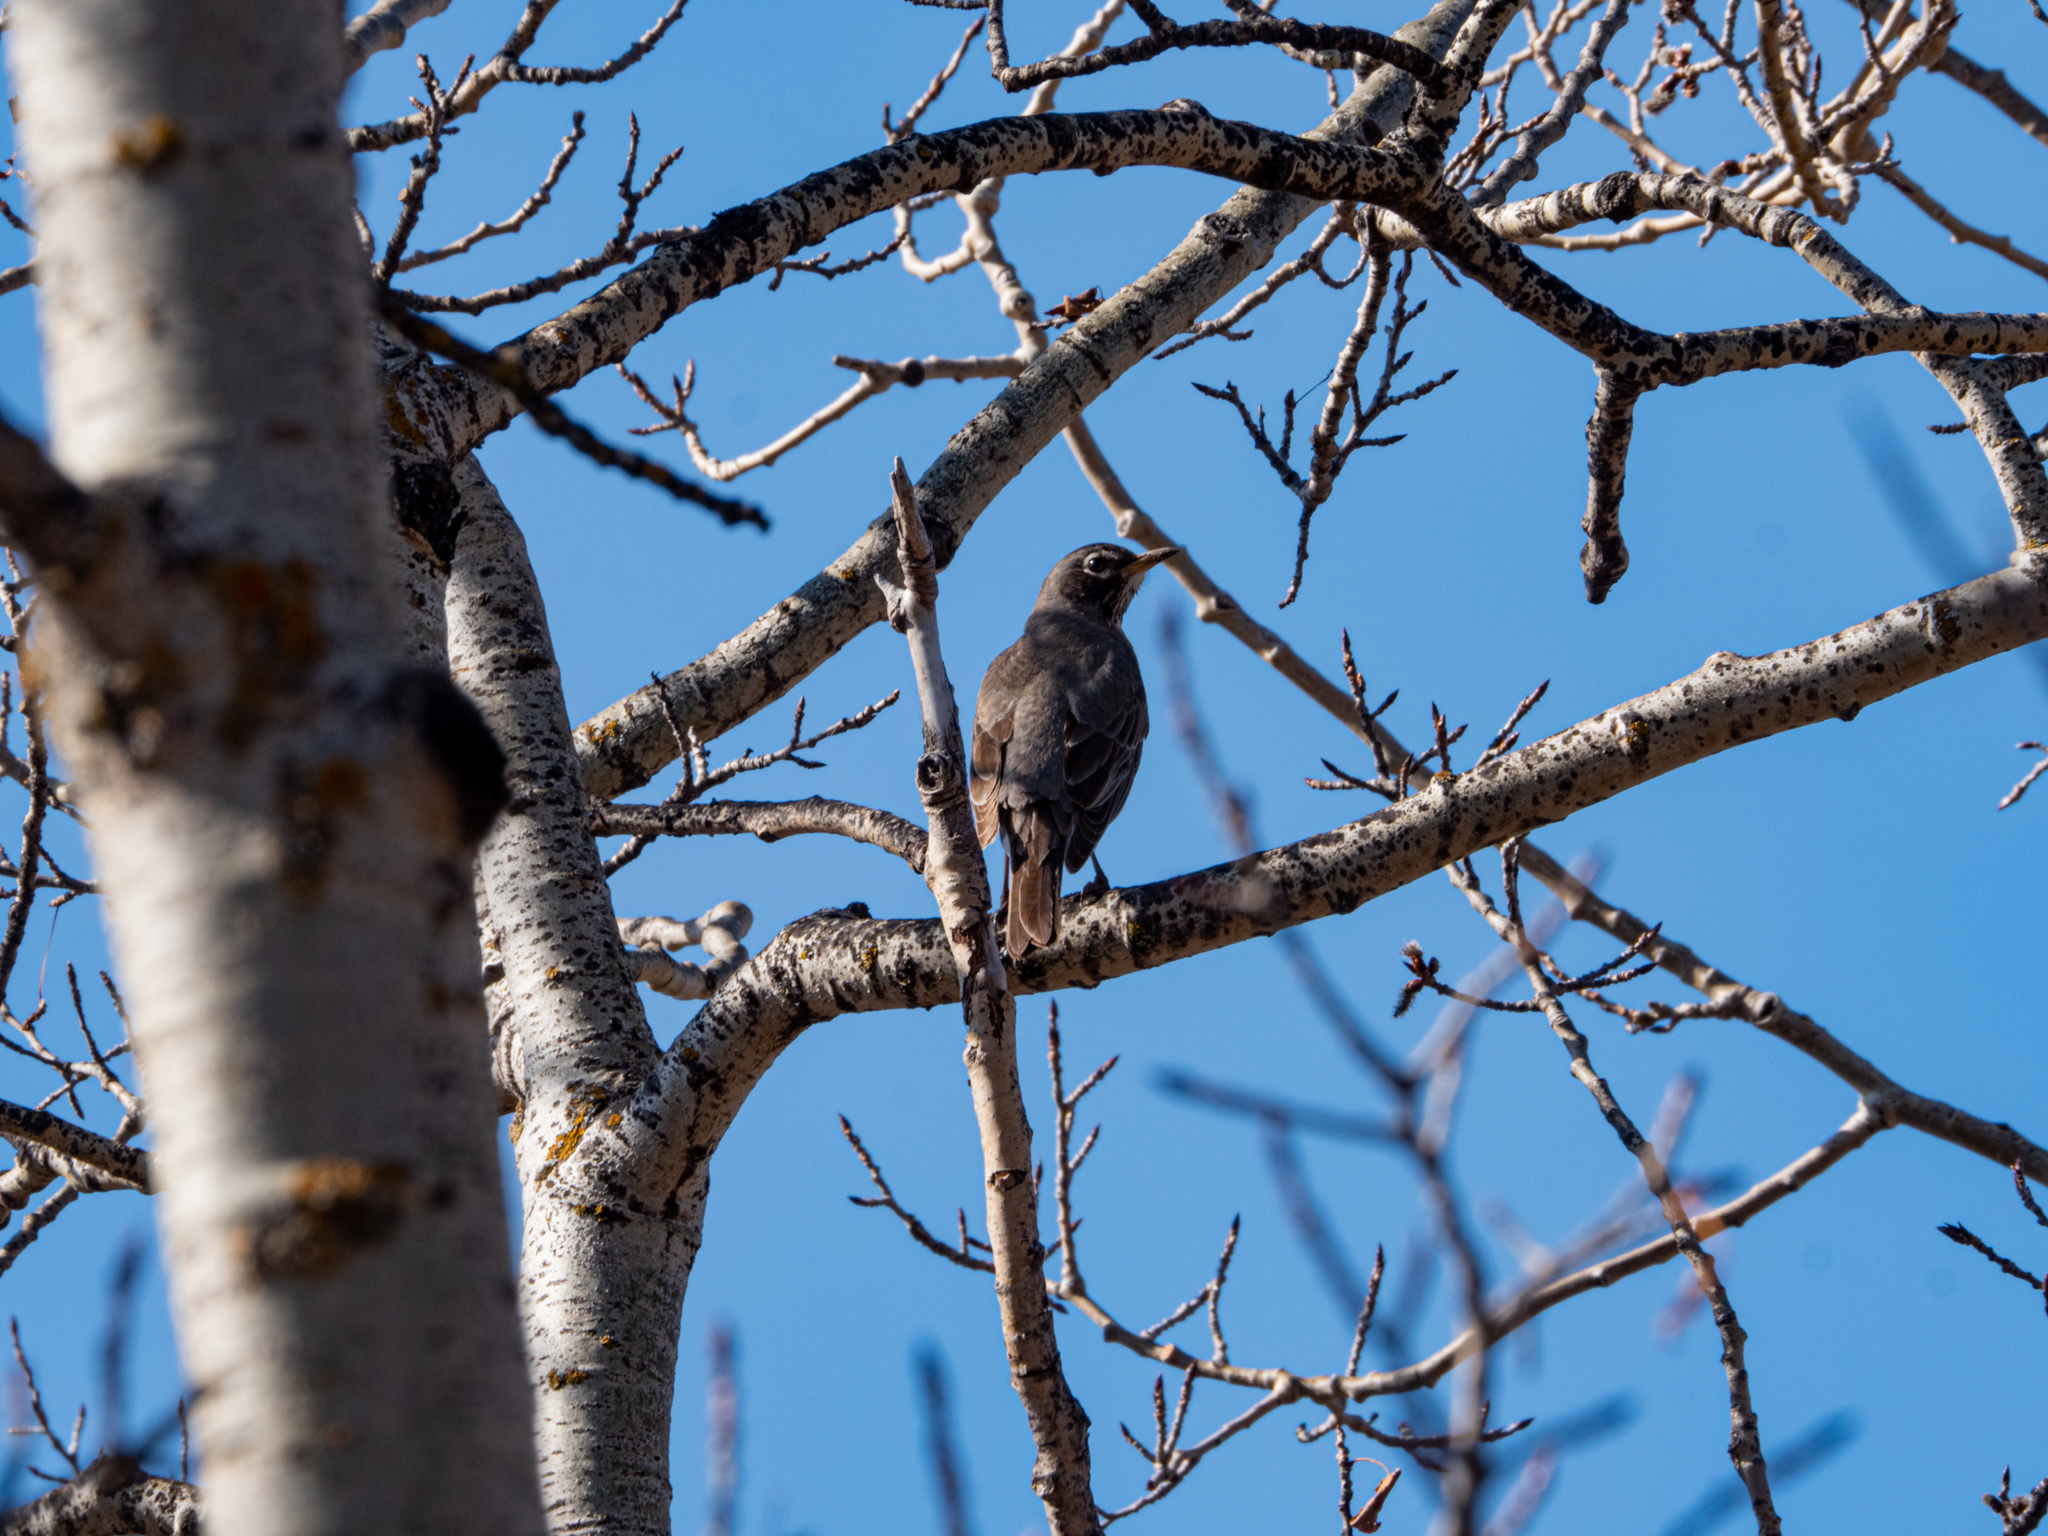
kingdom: Animalia
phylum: Chordata
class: Aves
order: Passeriformes
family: Turdidae
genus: Turdus
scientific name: Turdus migratorius
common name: American robin
